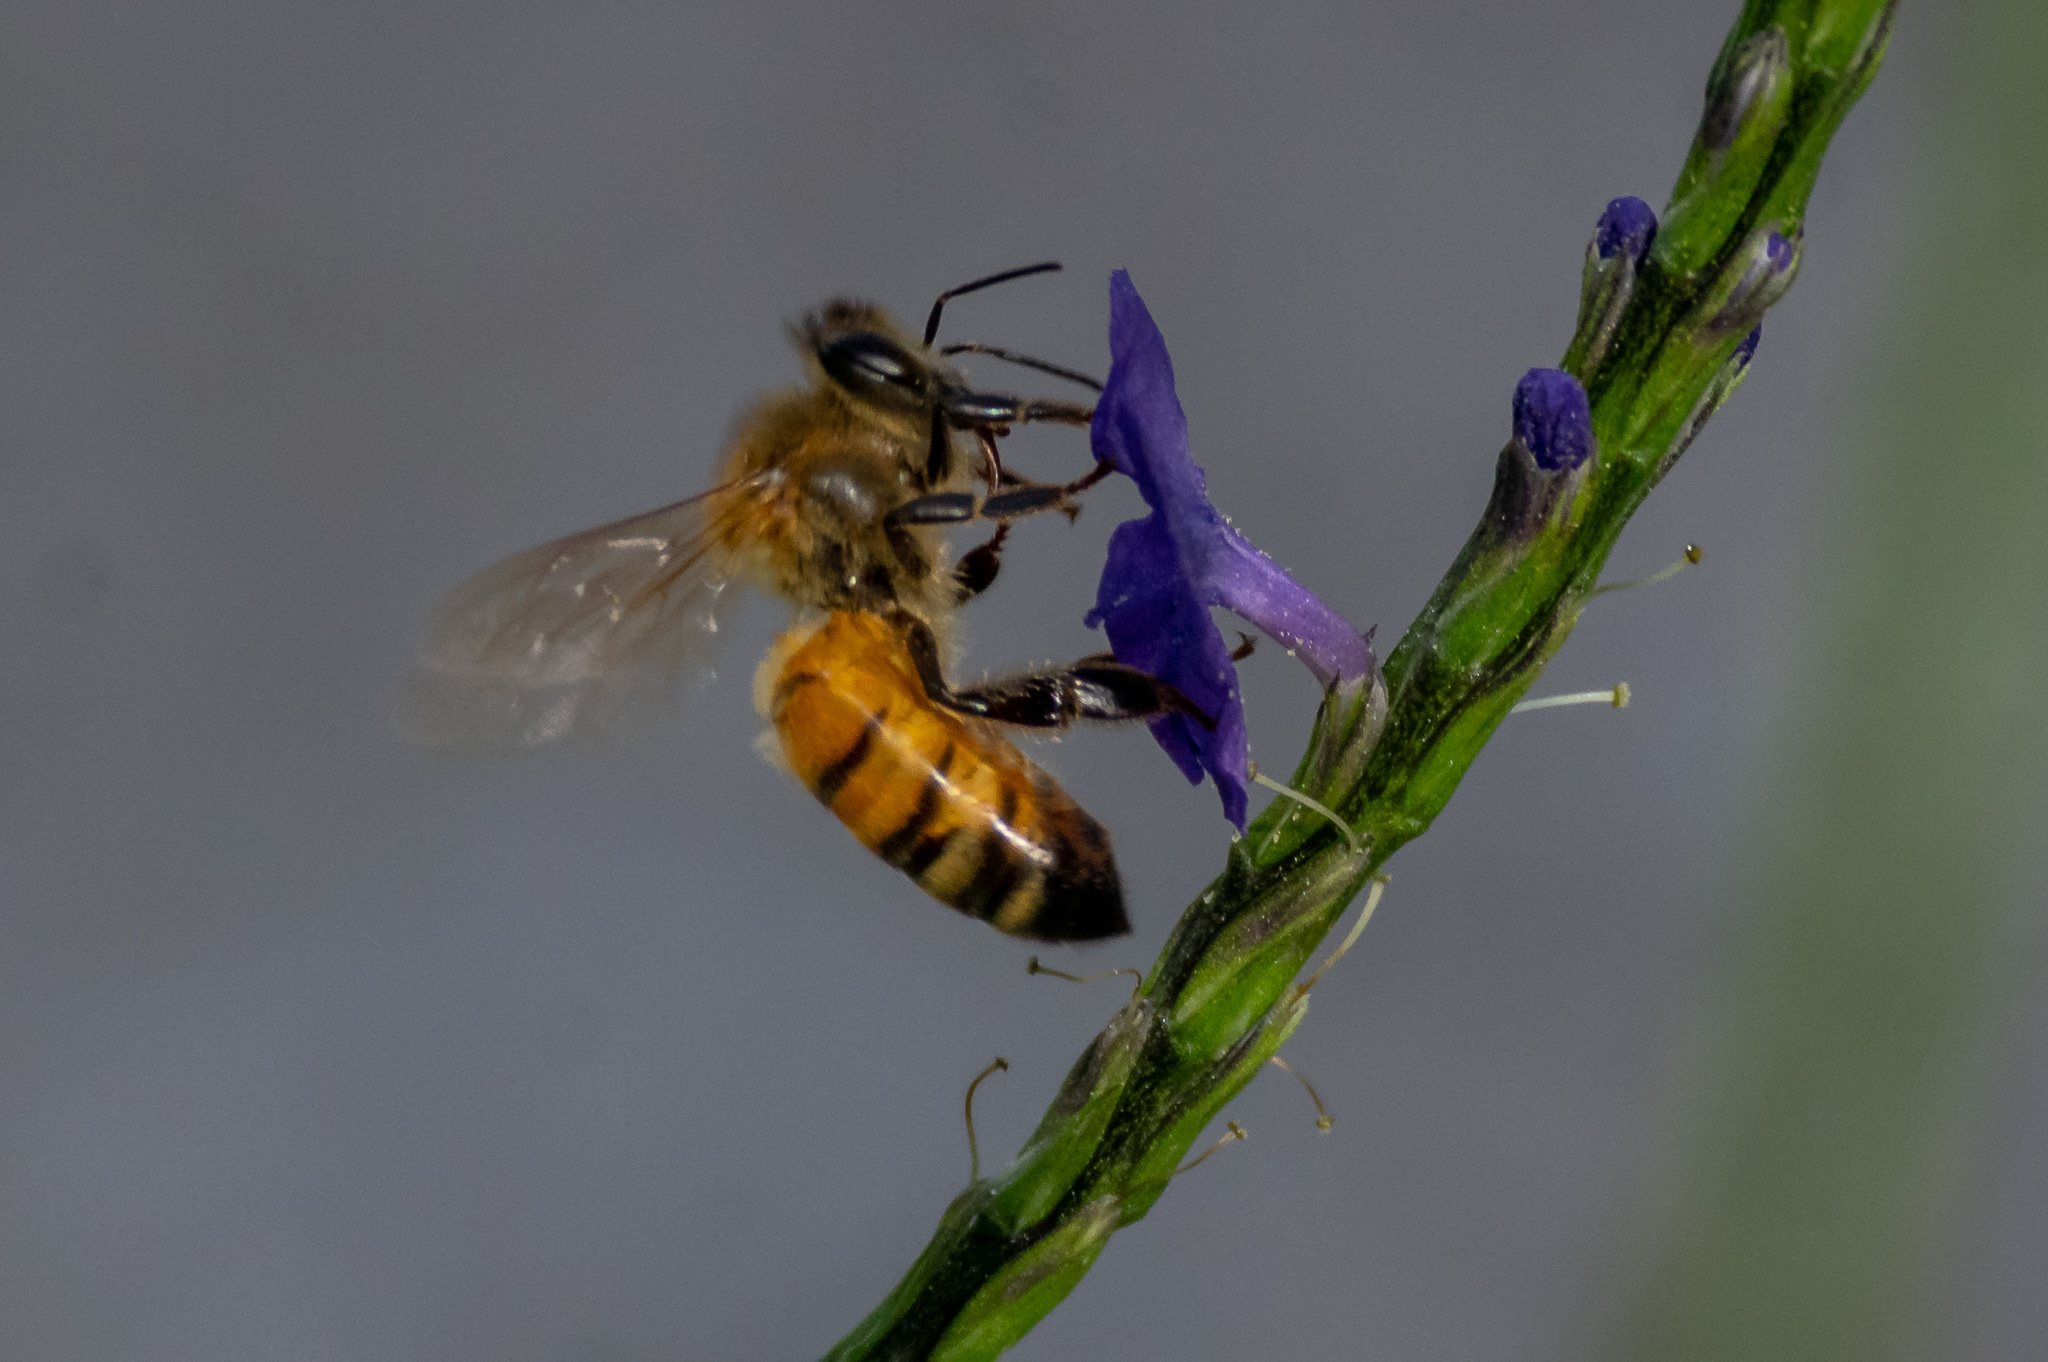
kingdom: Animalia
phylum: Arthropoda
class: Insecta
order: Hymenoptera
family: Apidae
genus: Apis
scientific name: Apis mellifera
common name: Honey bee
